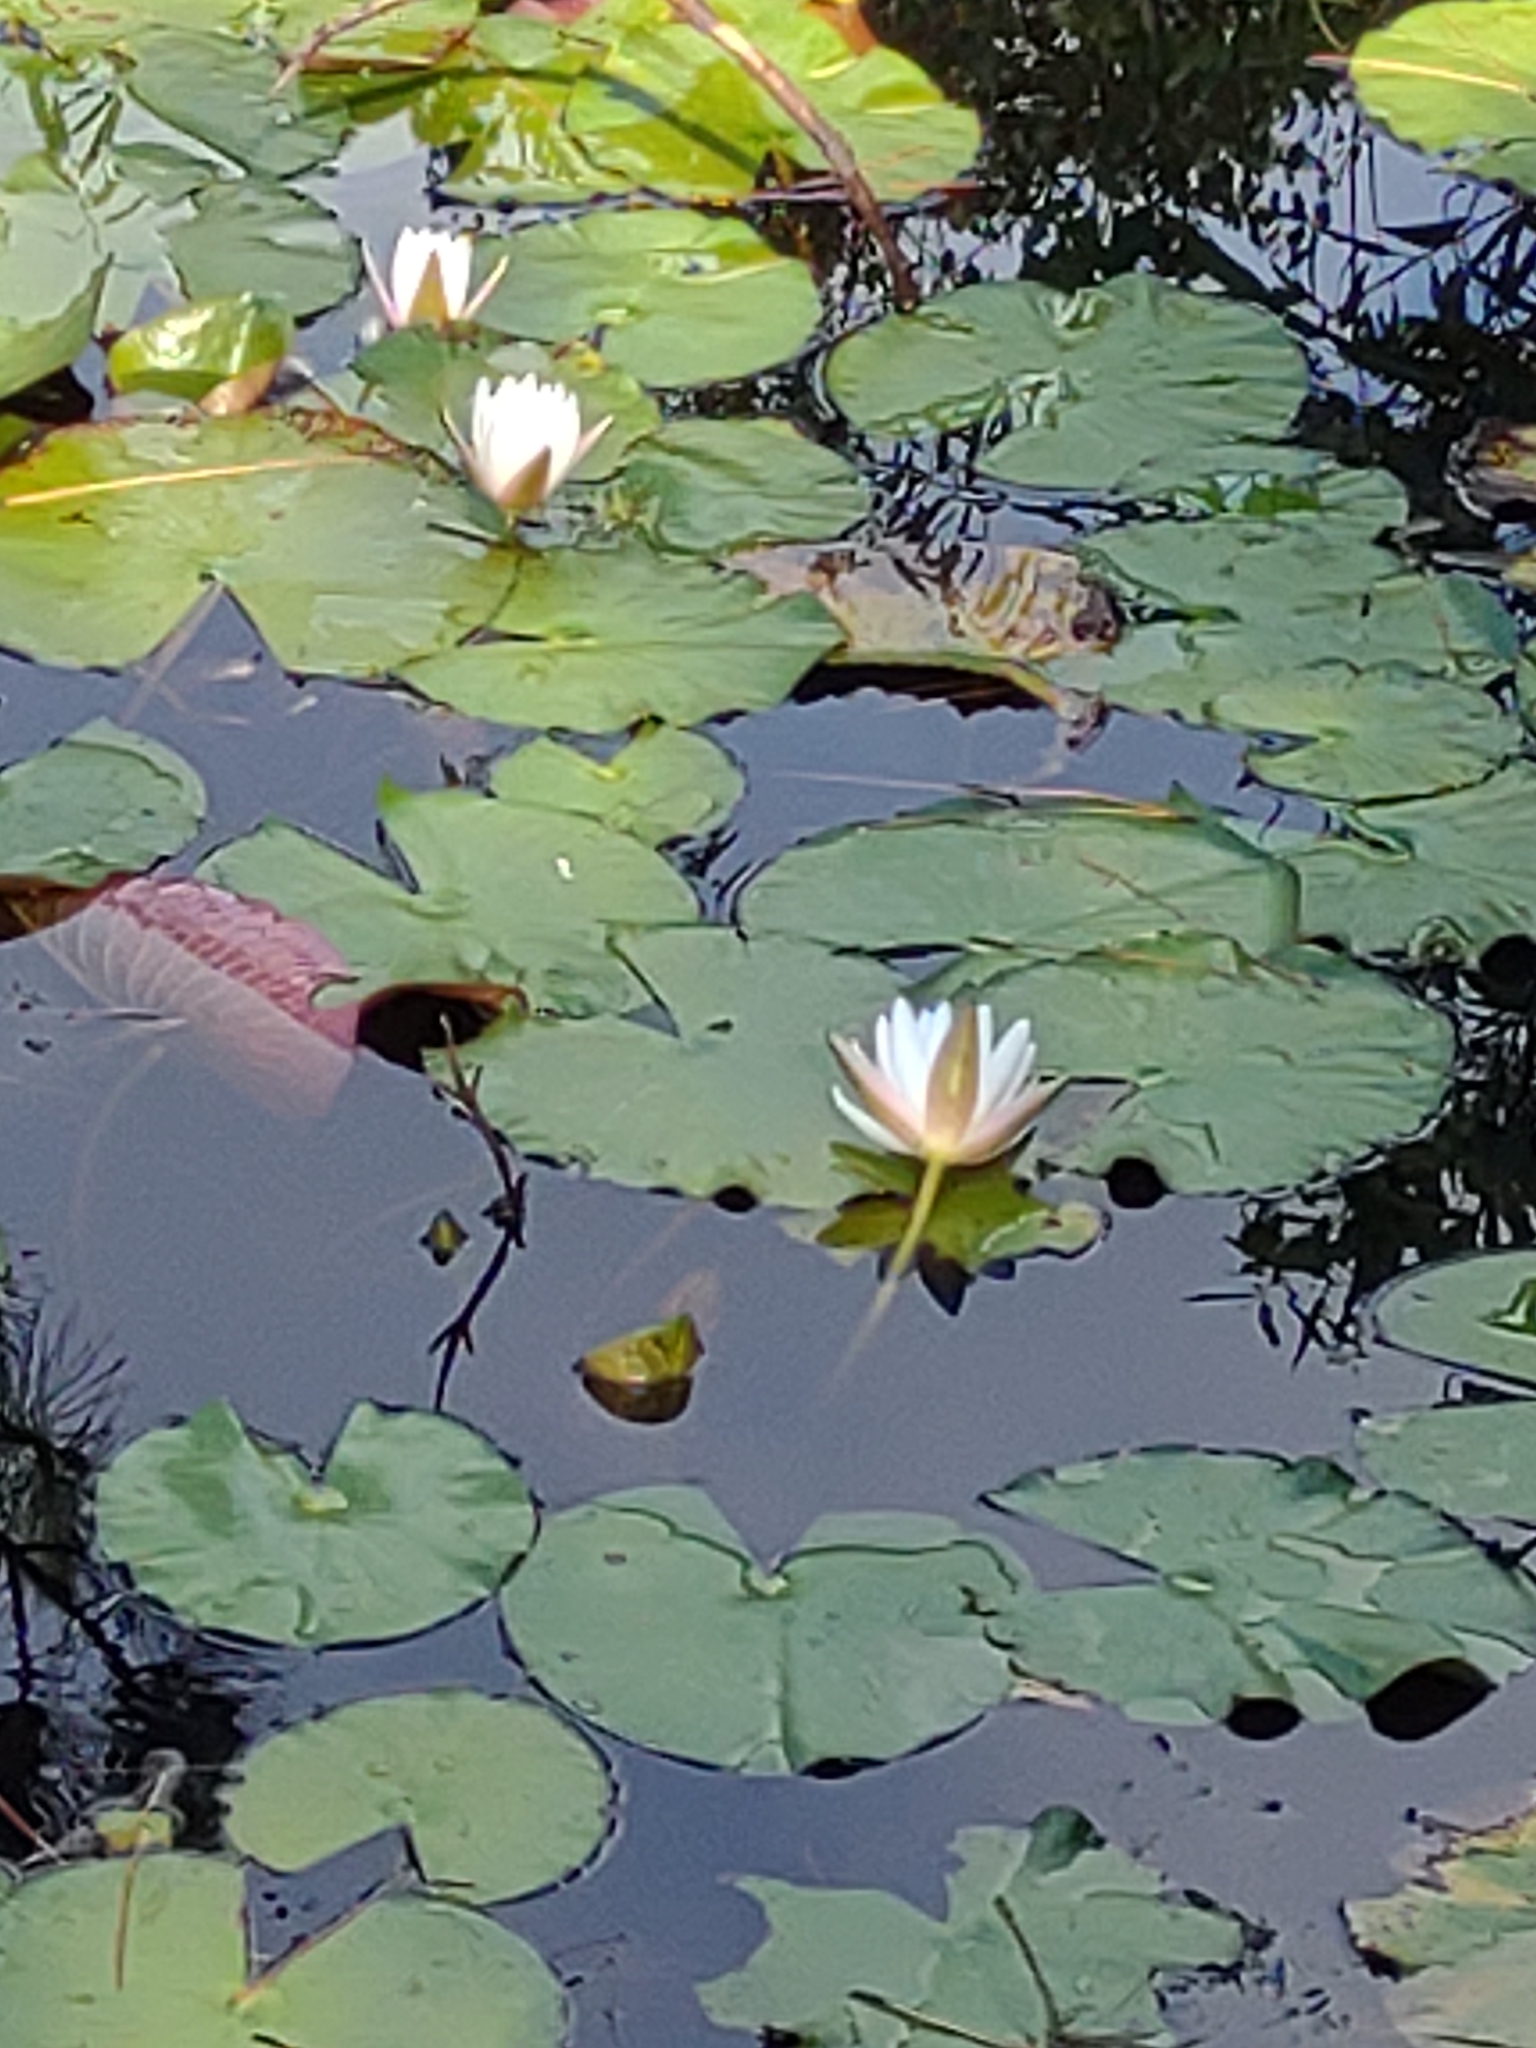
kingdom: Plantae
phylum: Tracheophyta
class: Magnoliopsida
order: Nymphaeales
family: Nymphaeaceae
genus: Nymphaea
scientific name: Nymphaea odorata
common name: Fragrant water-lily
